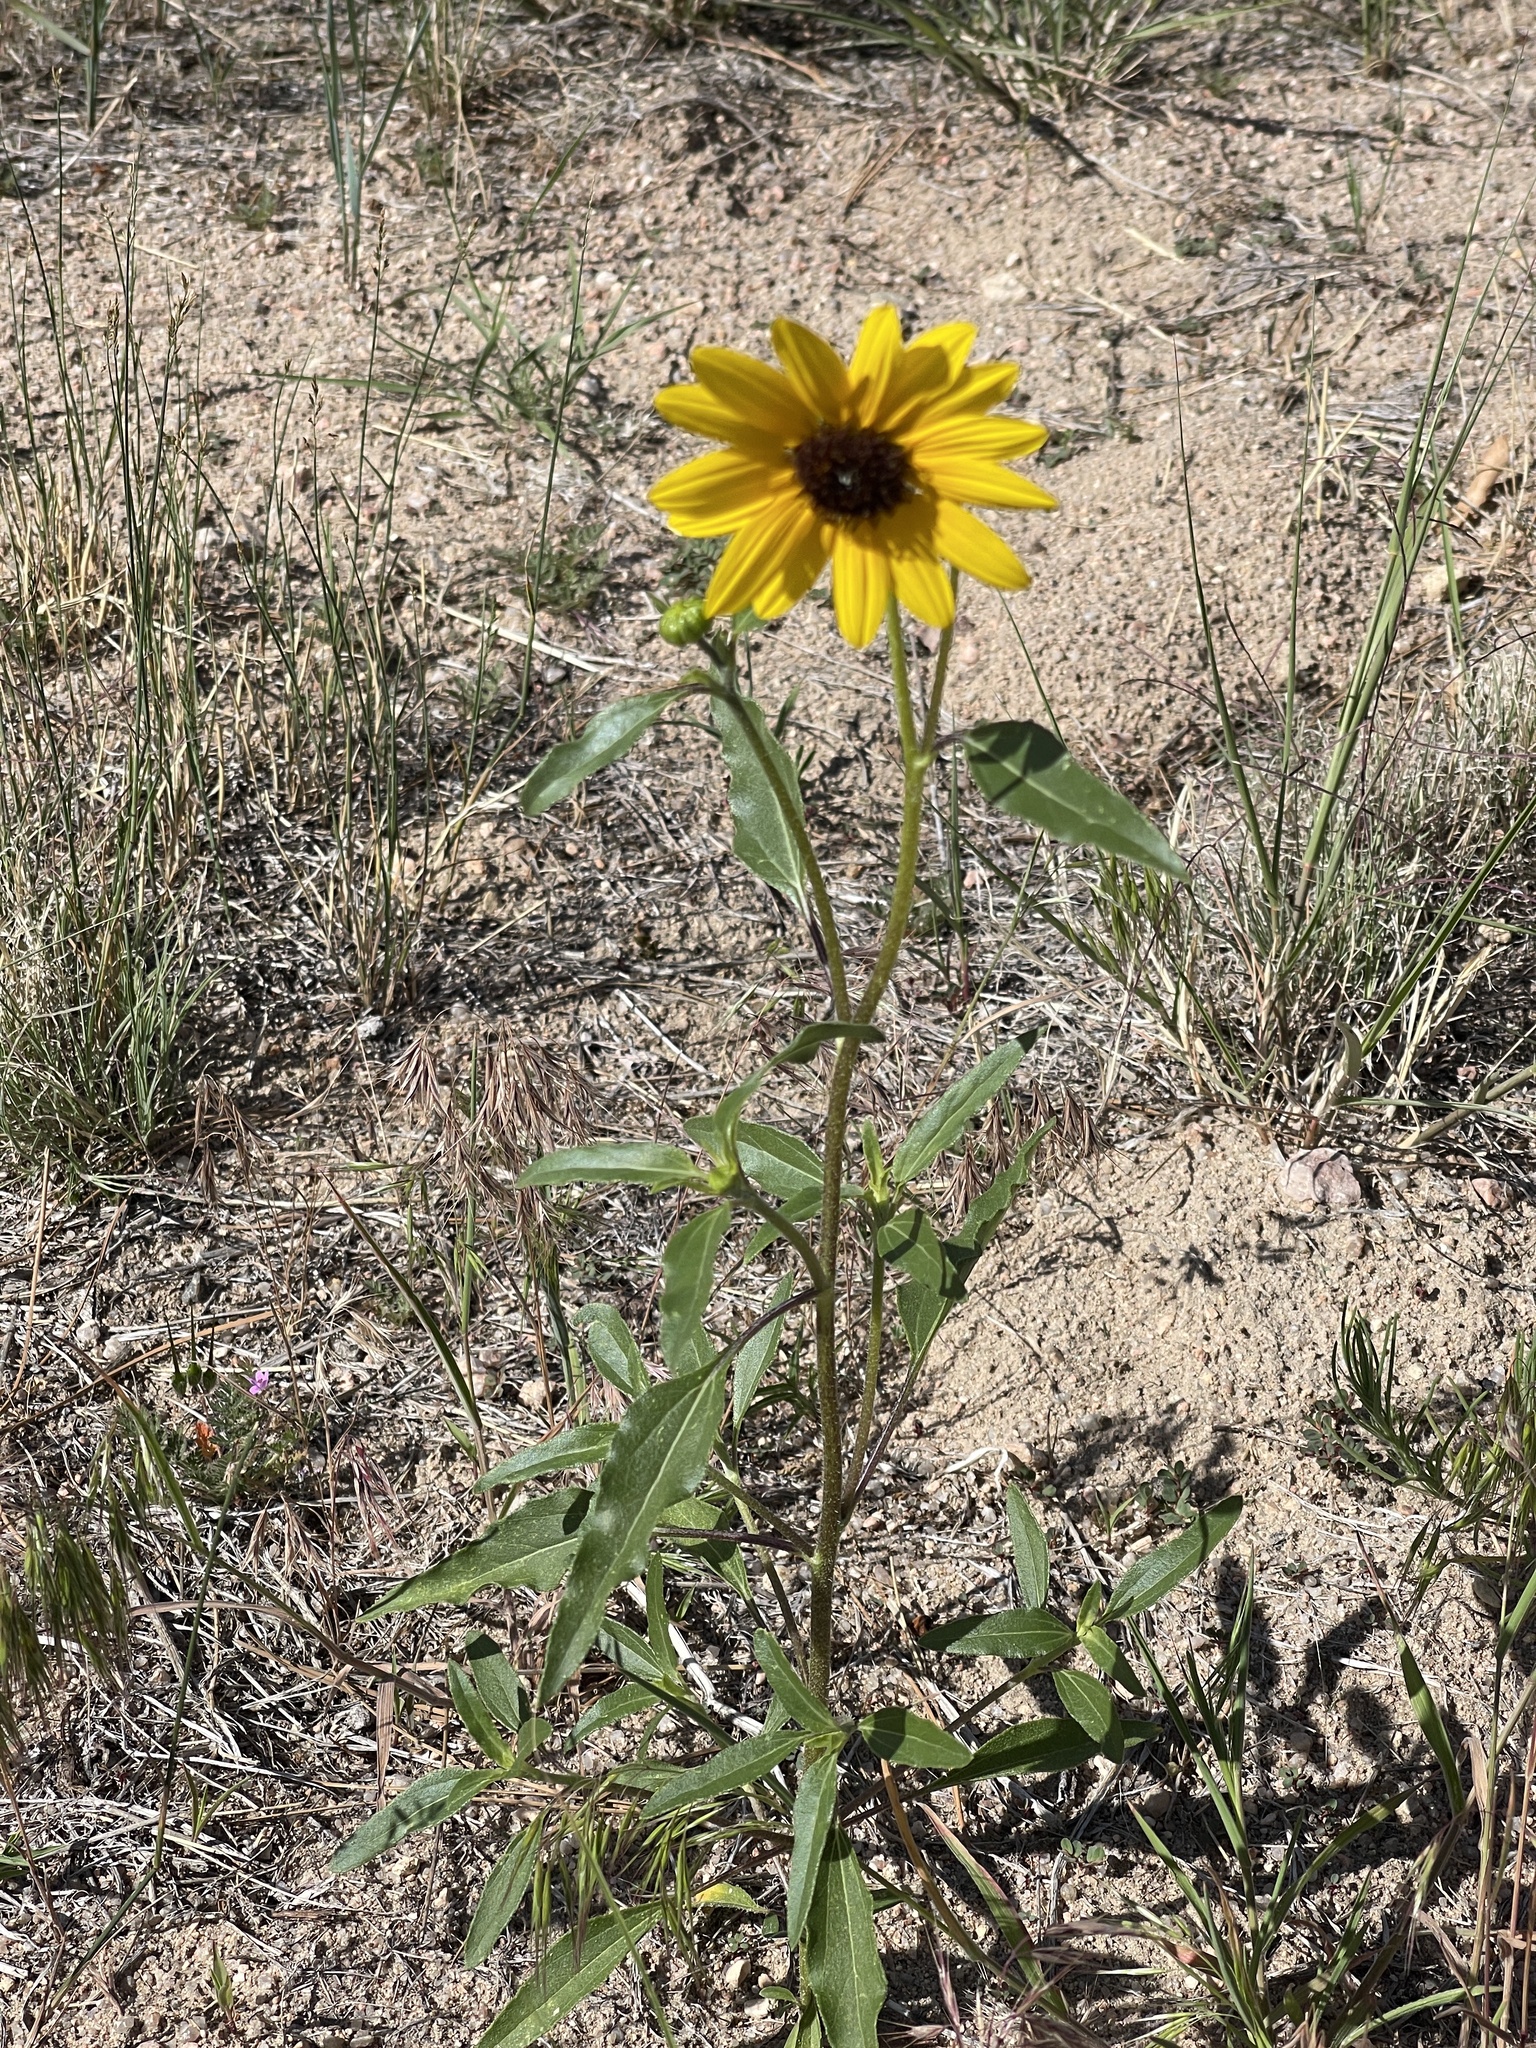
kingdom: Plantae
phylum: Tracheophyta
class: Magnoliopsida
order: Asterales
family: Asteraceae
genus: Helianthus
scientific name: Helianthus petiolaris
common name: Lesser sunflower
